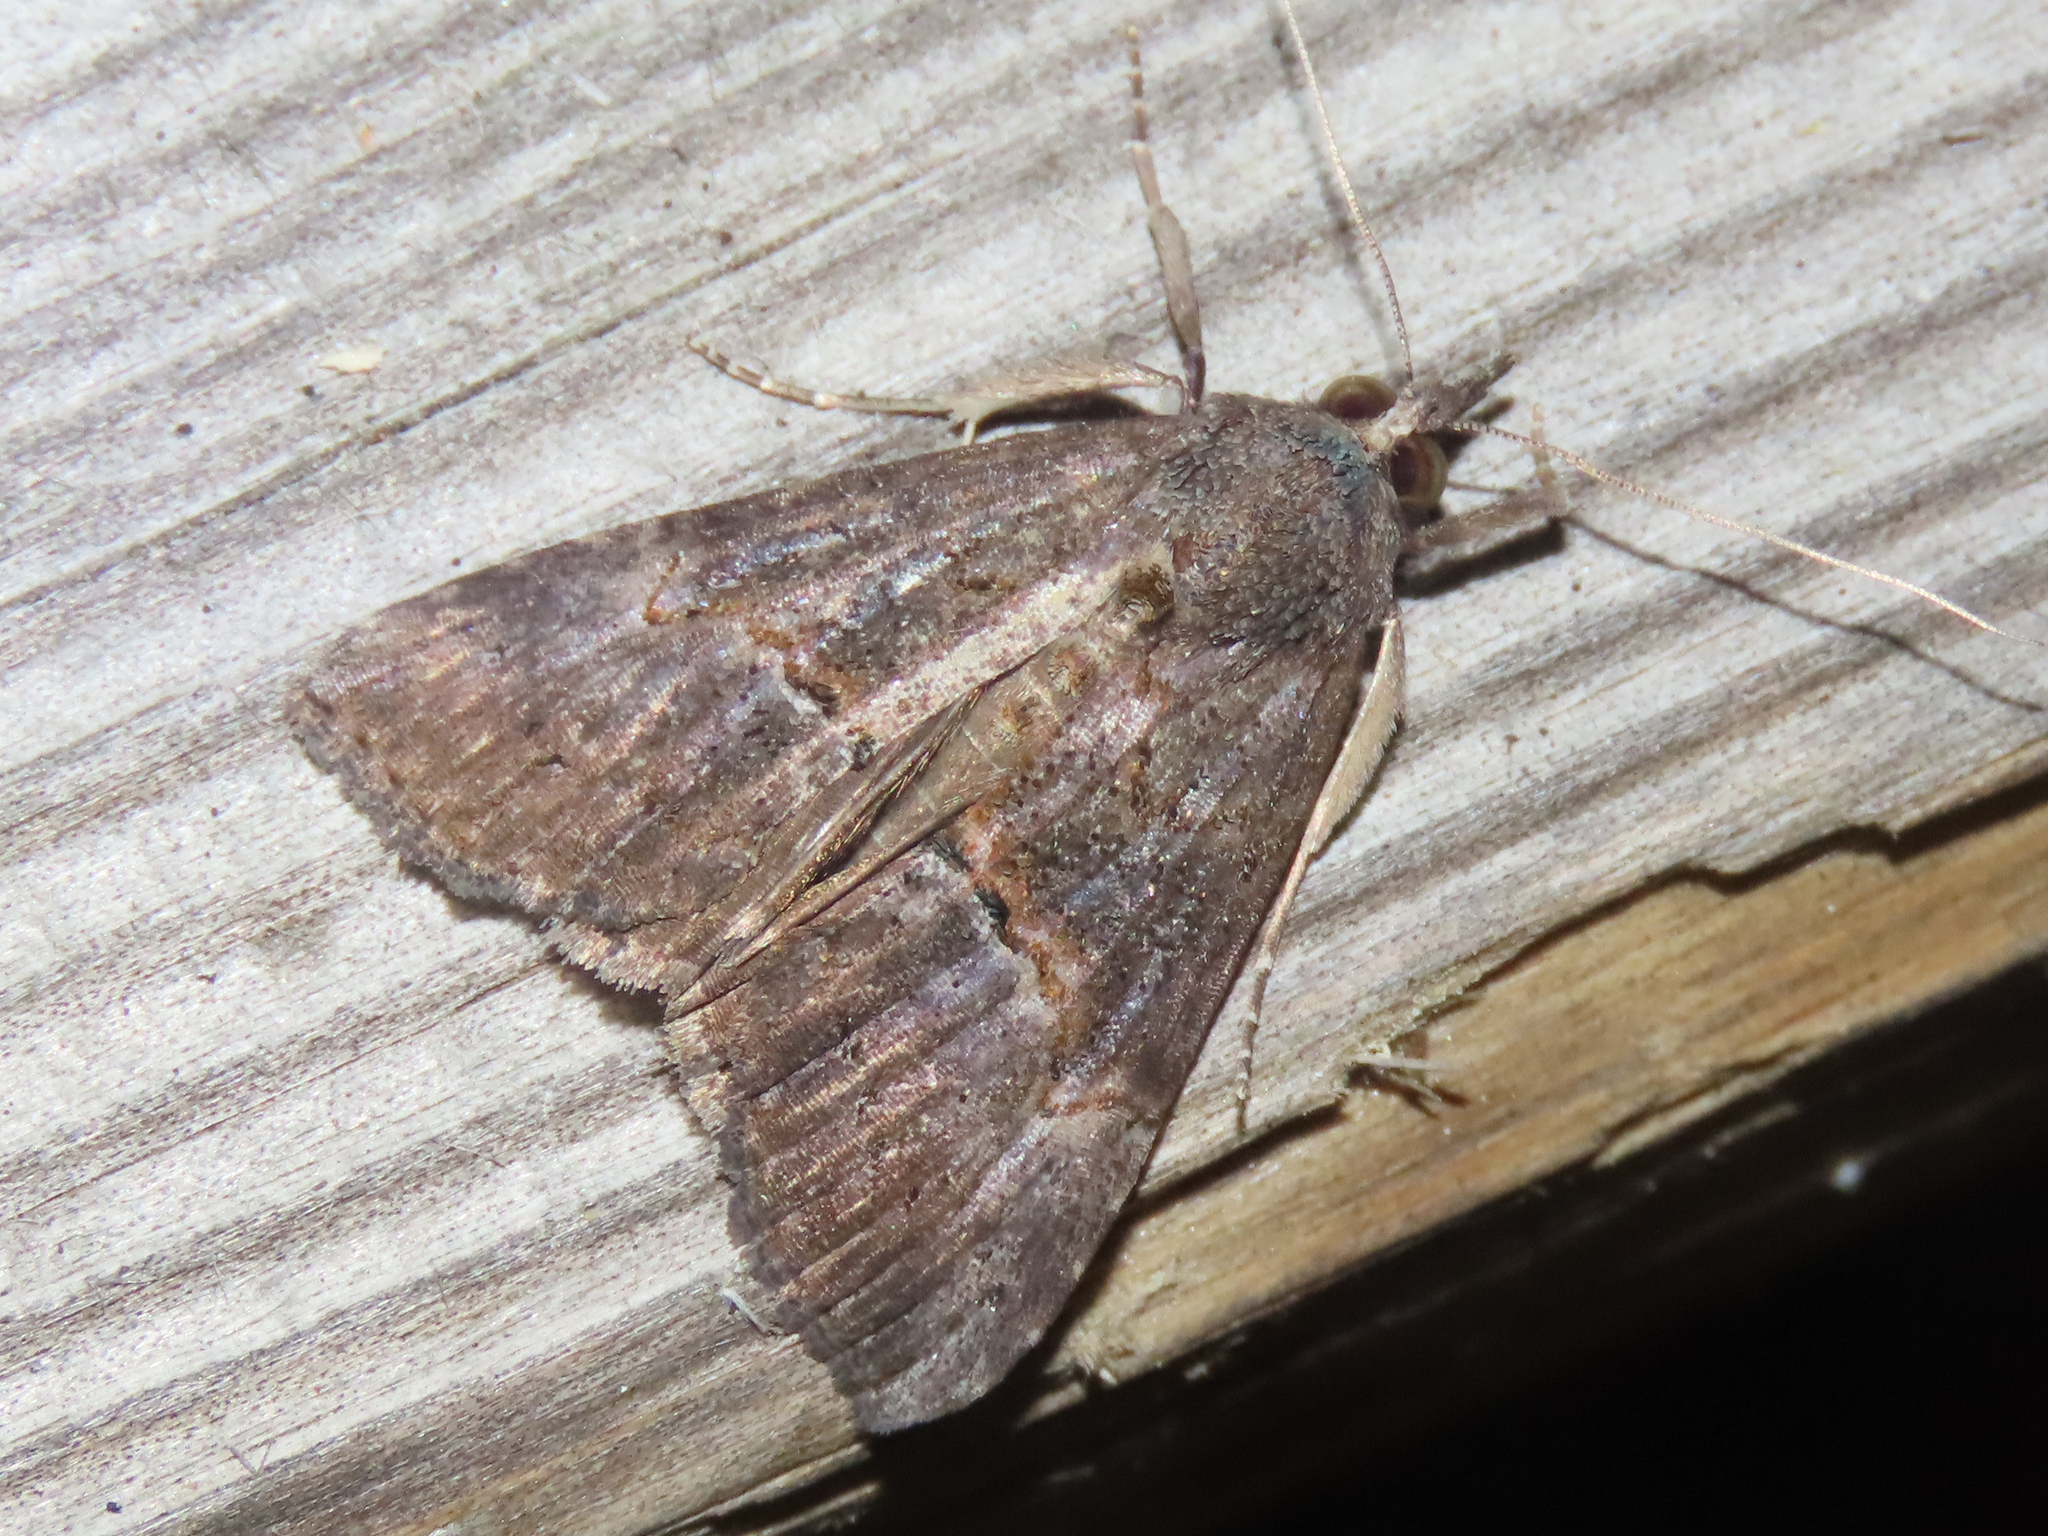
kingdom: Animalia
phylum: Arthropoda
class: Insecta
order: Lepidoptera
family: Erebidae
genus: Hypena
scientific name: Hypena scabra
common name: Green cloverworm
